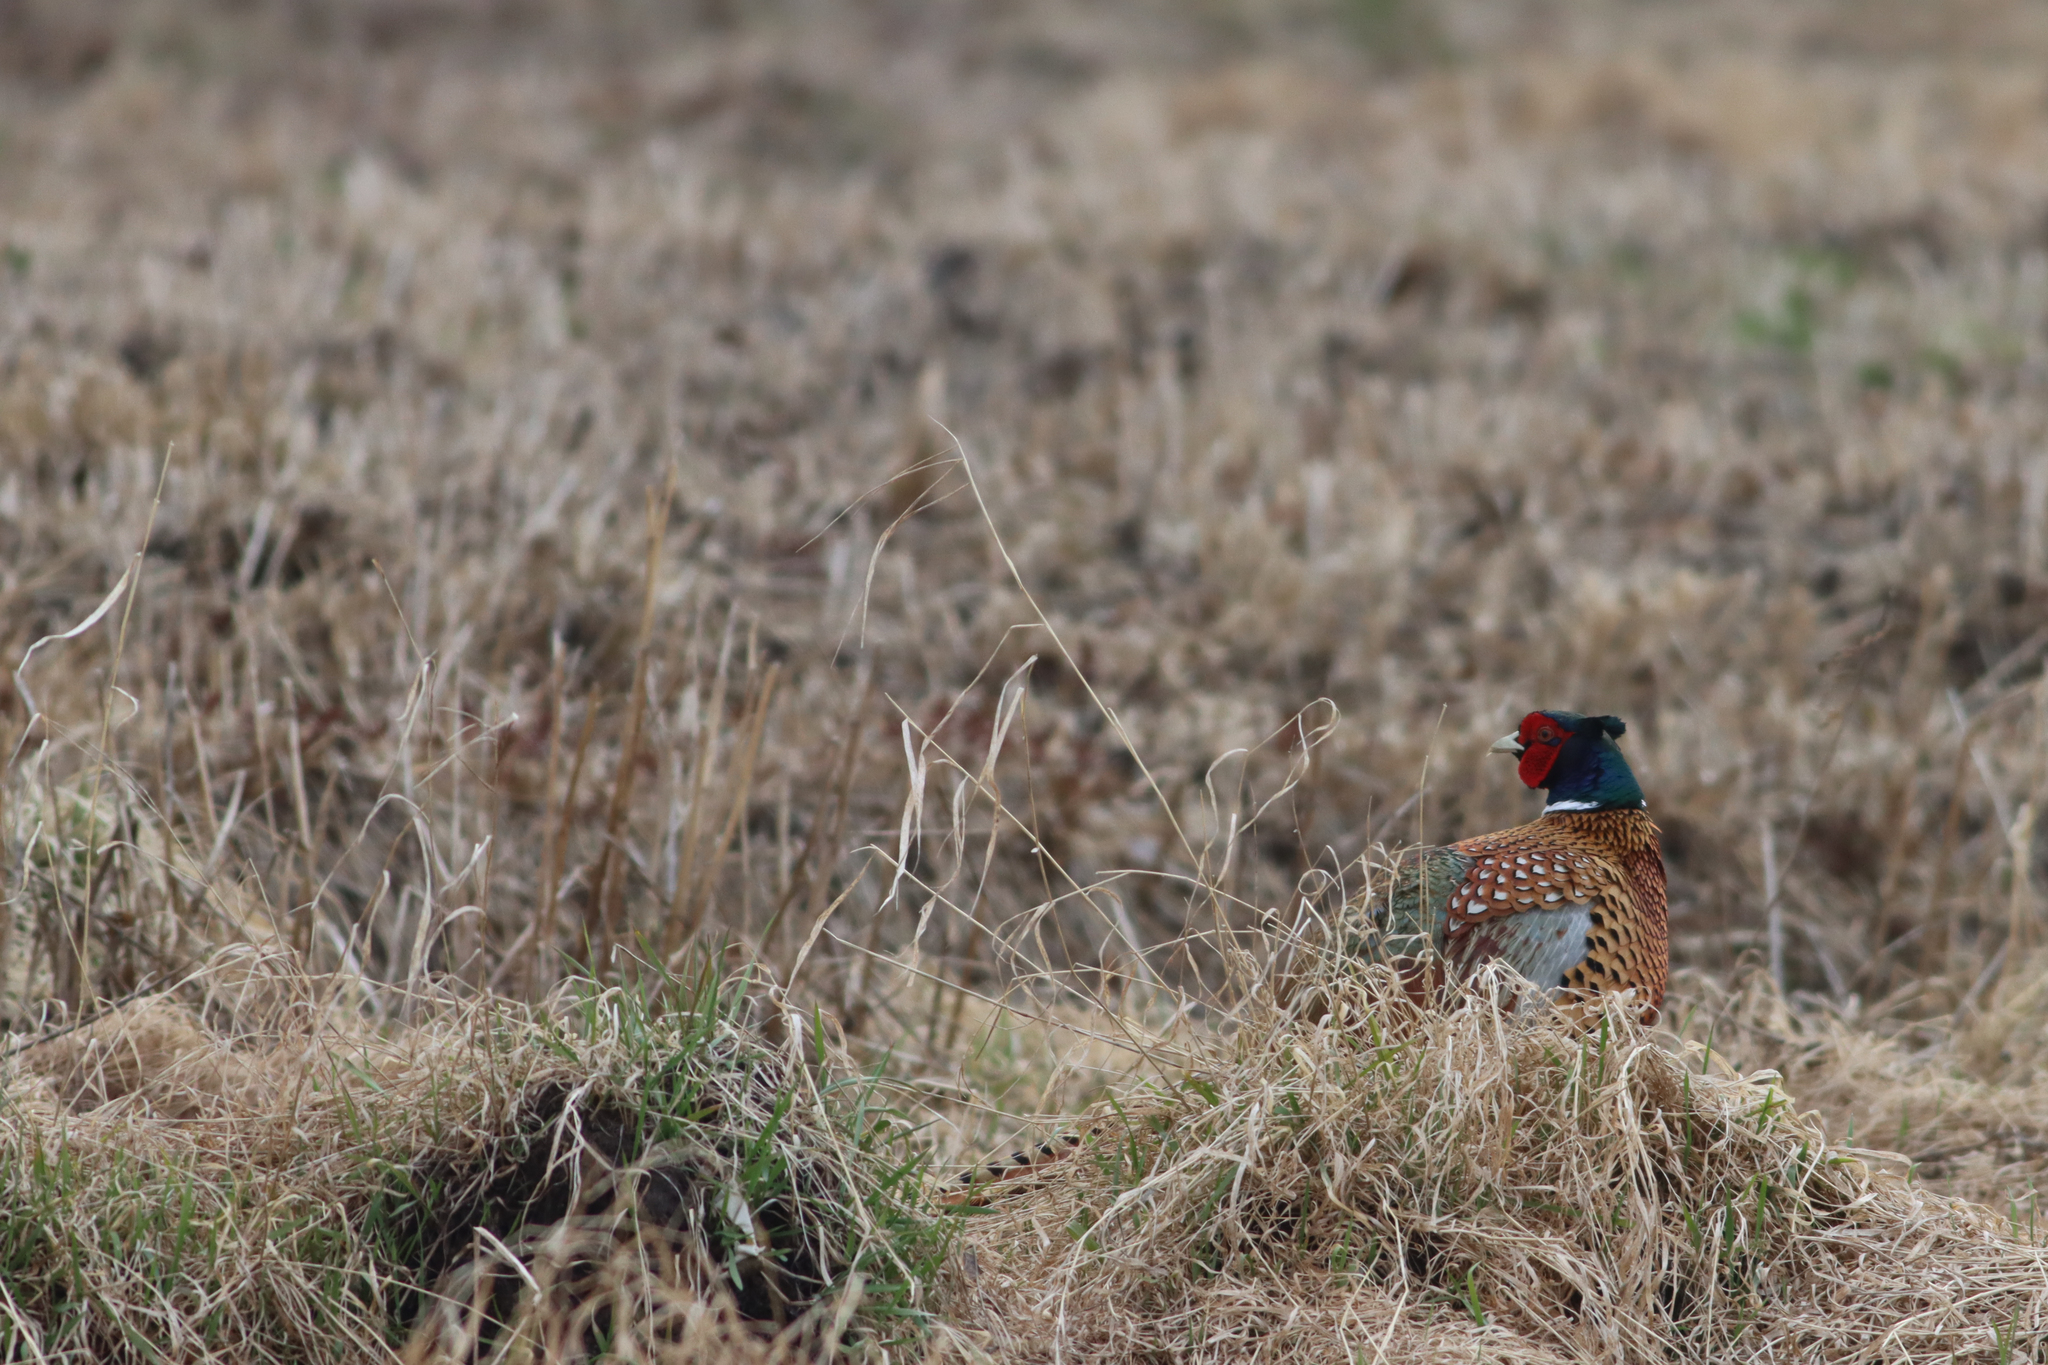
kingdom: Animalia
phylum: Chordata
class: Aves
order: Galliformes
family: Phasianidae
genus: Phasianus
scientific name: Phasianus colchicus
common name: Common pheasant
